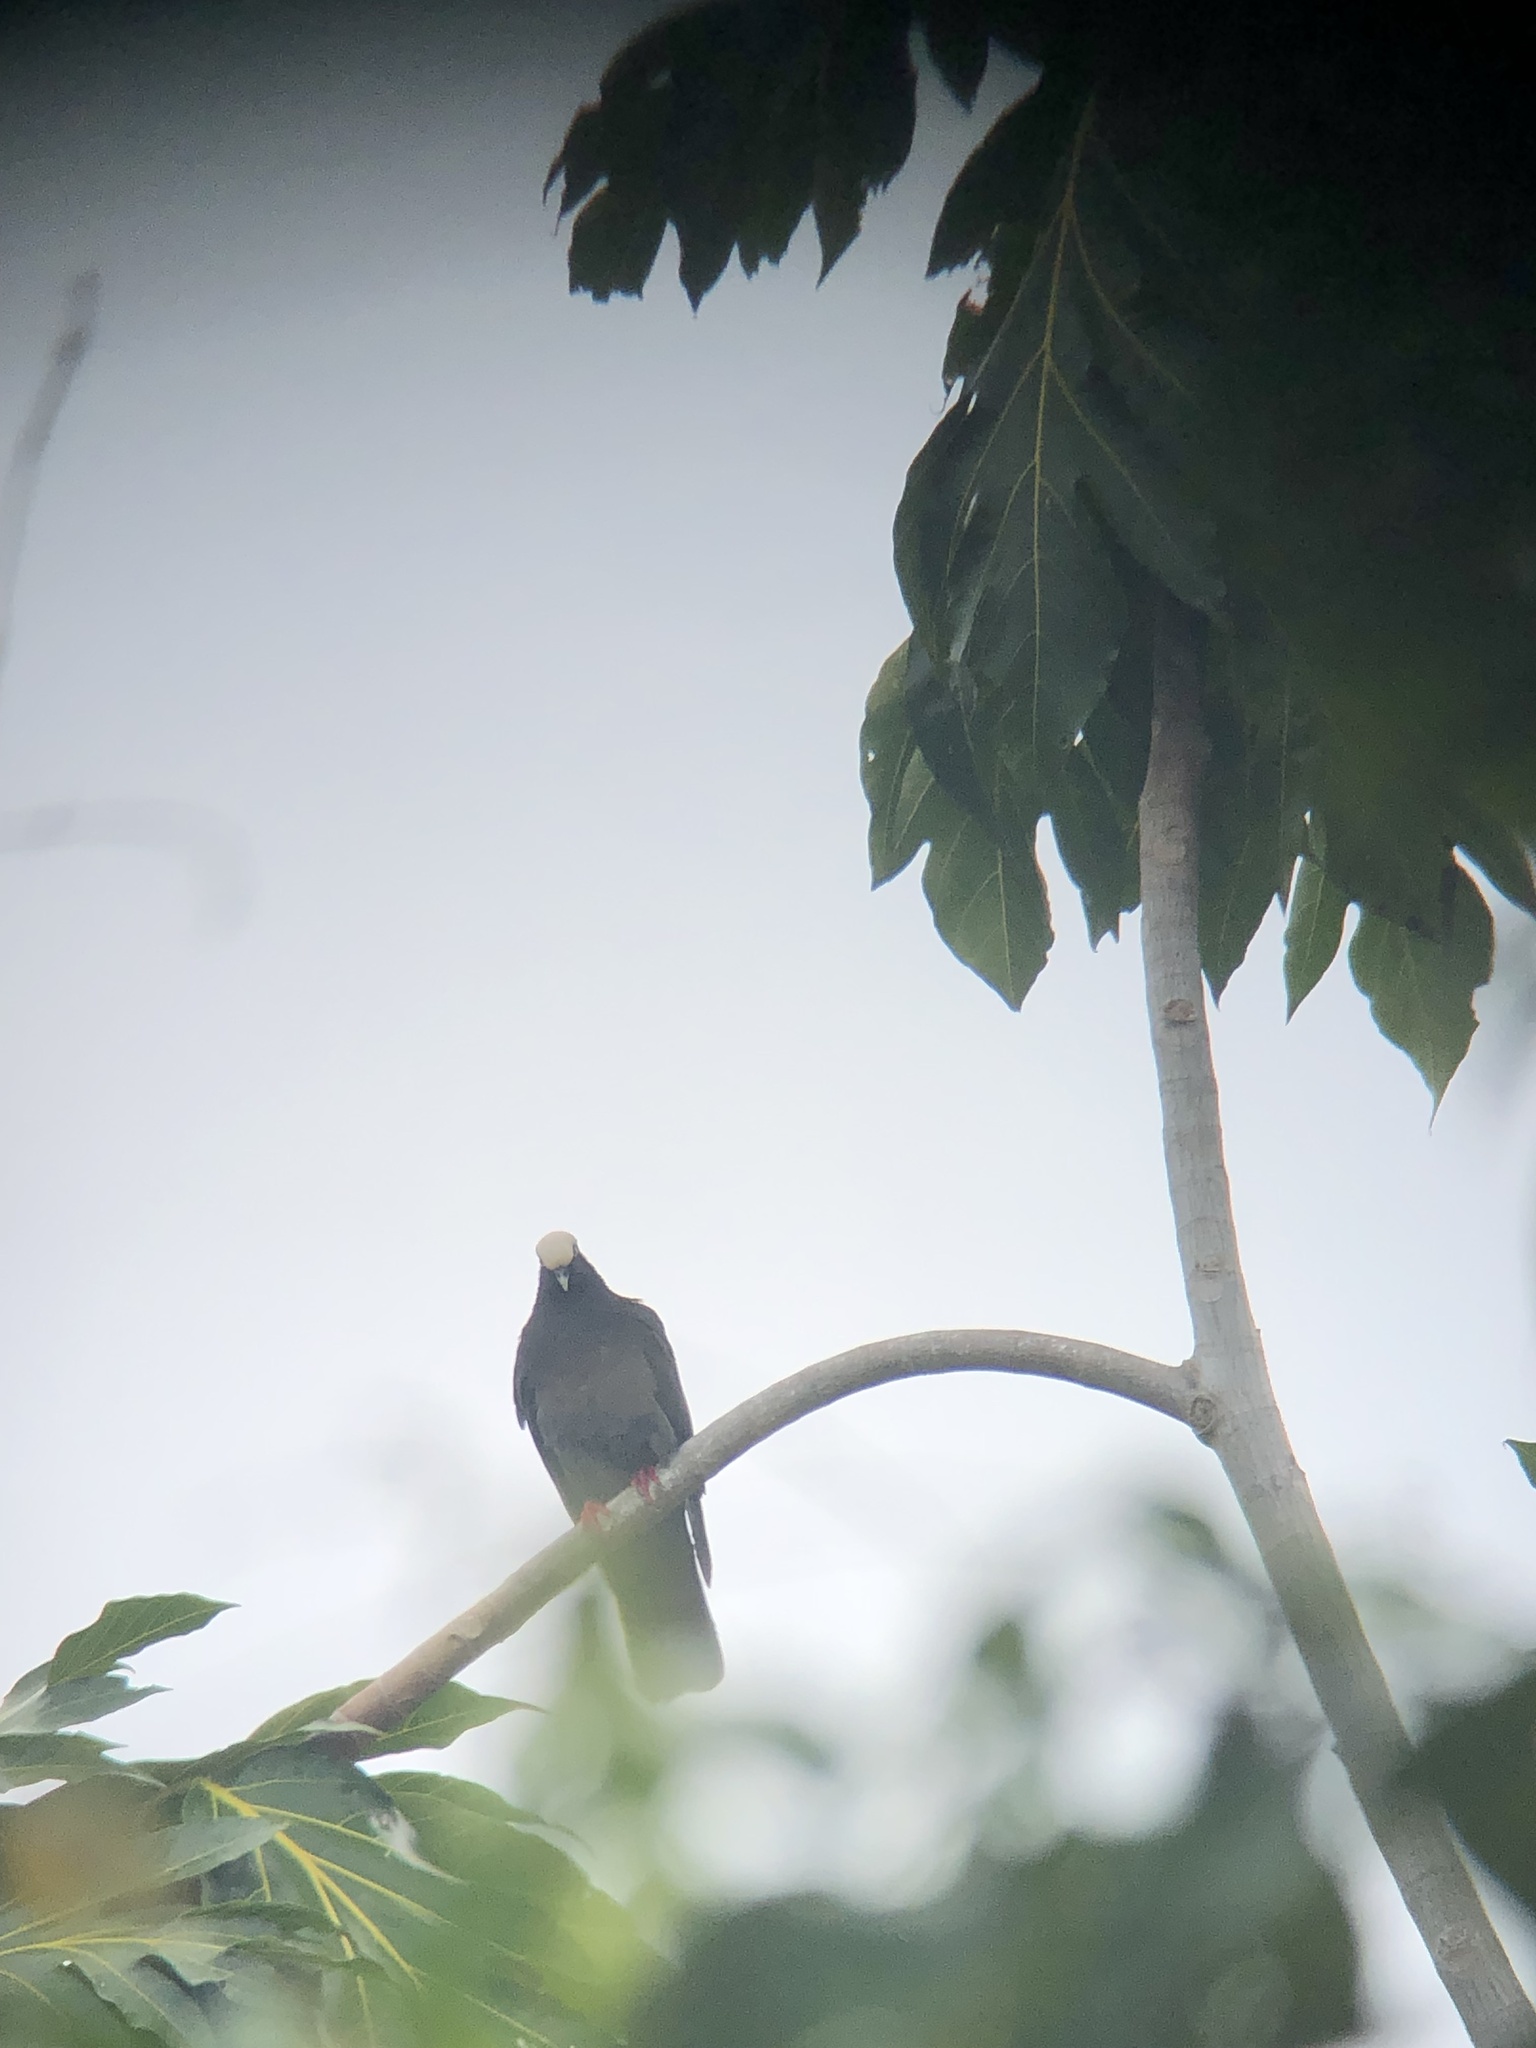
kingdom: Animalia
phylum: Chordata
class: Aves
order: Columbiformes
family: Columbidae
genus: Patagioenas
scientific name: Patagioenas leucocephala
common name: White-crowned pigeon
